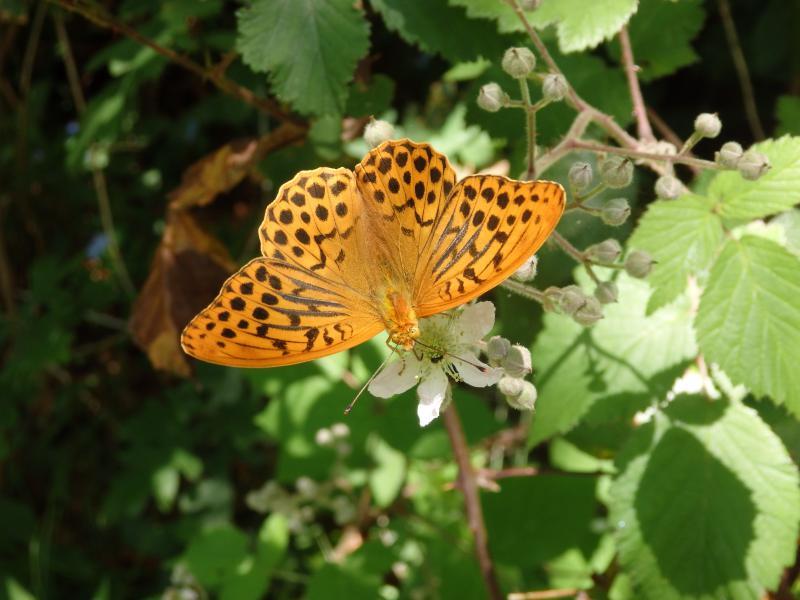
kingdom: Animalia
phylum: Arthropoda
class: Insecta
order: Lepidoptera
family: Nymphalidae
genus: Argynnis
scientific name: Argynnis paphia
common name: Silver-washed fritillary
